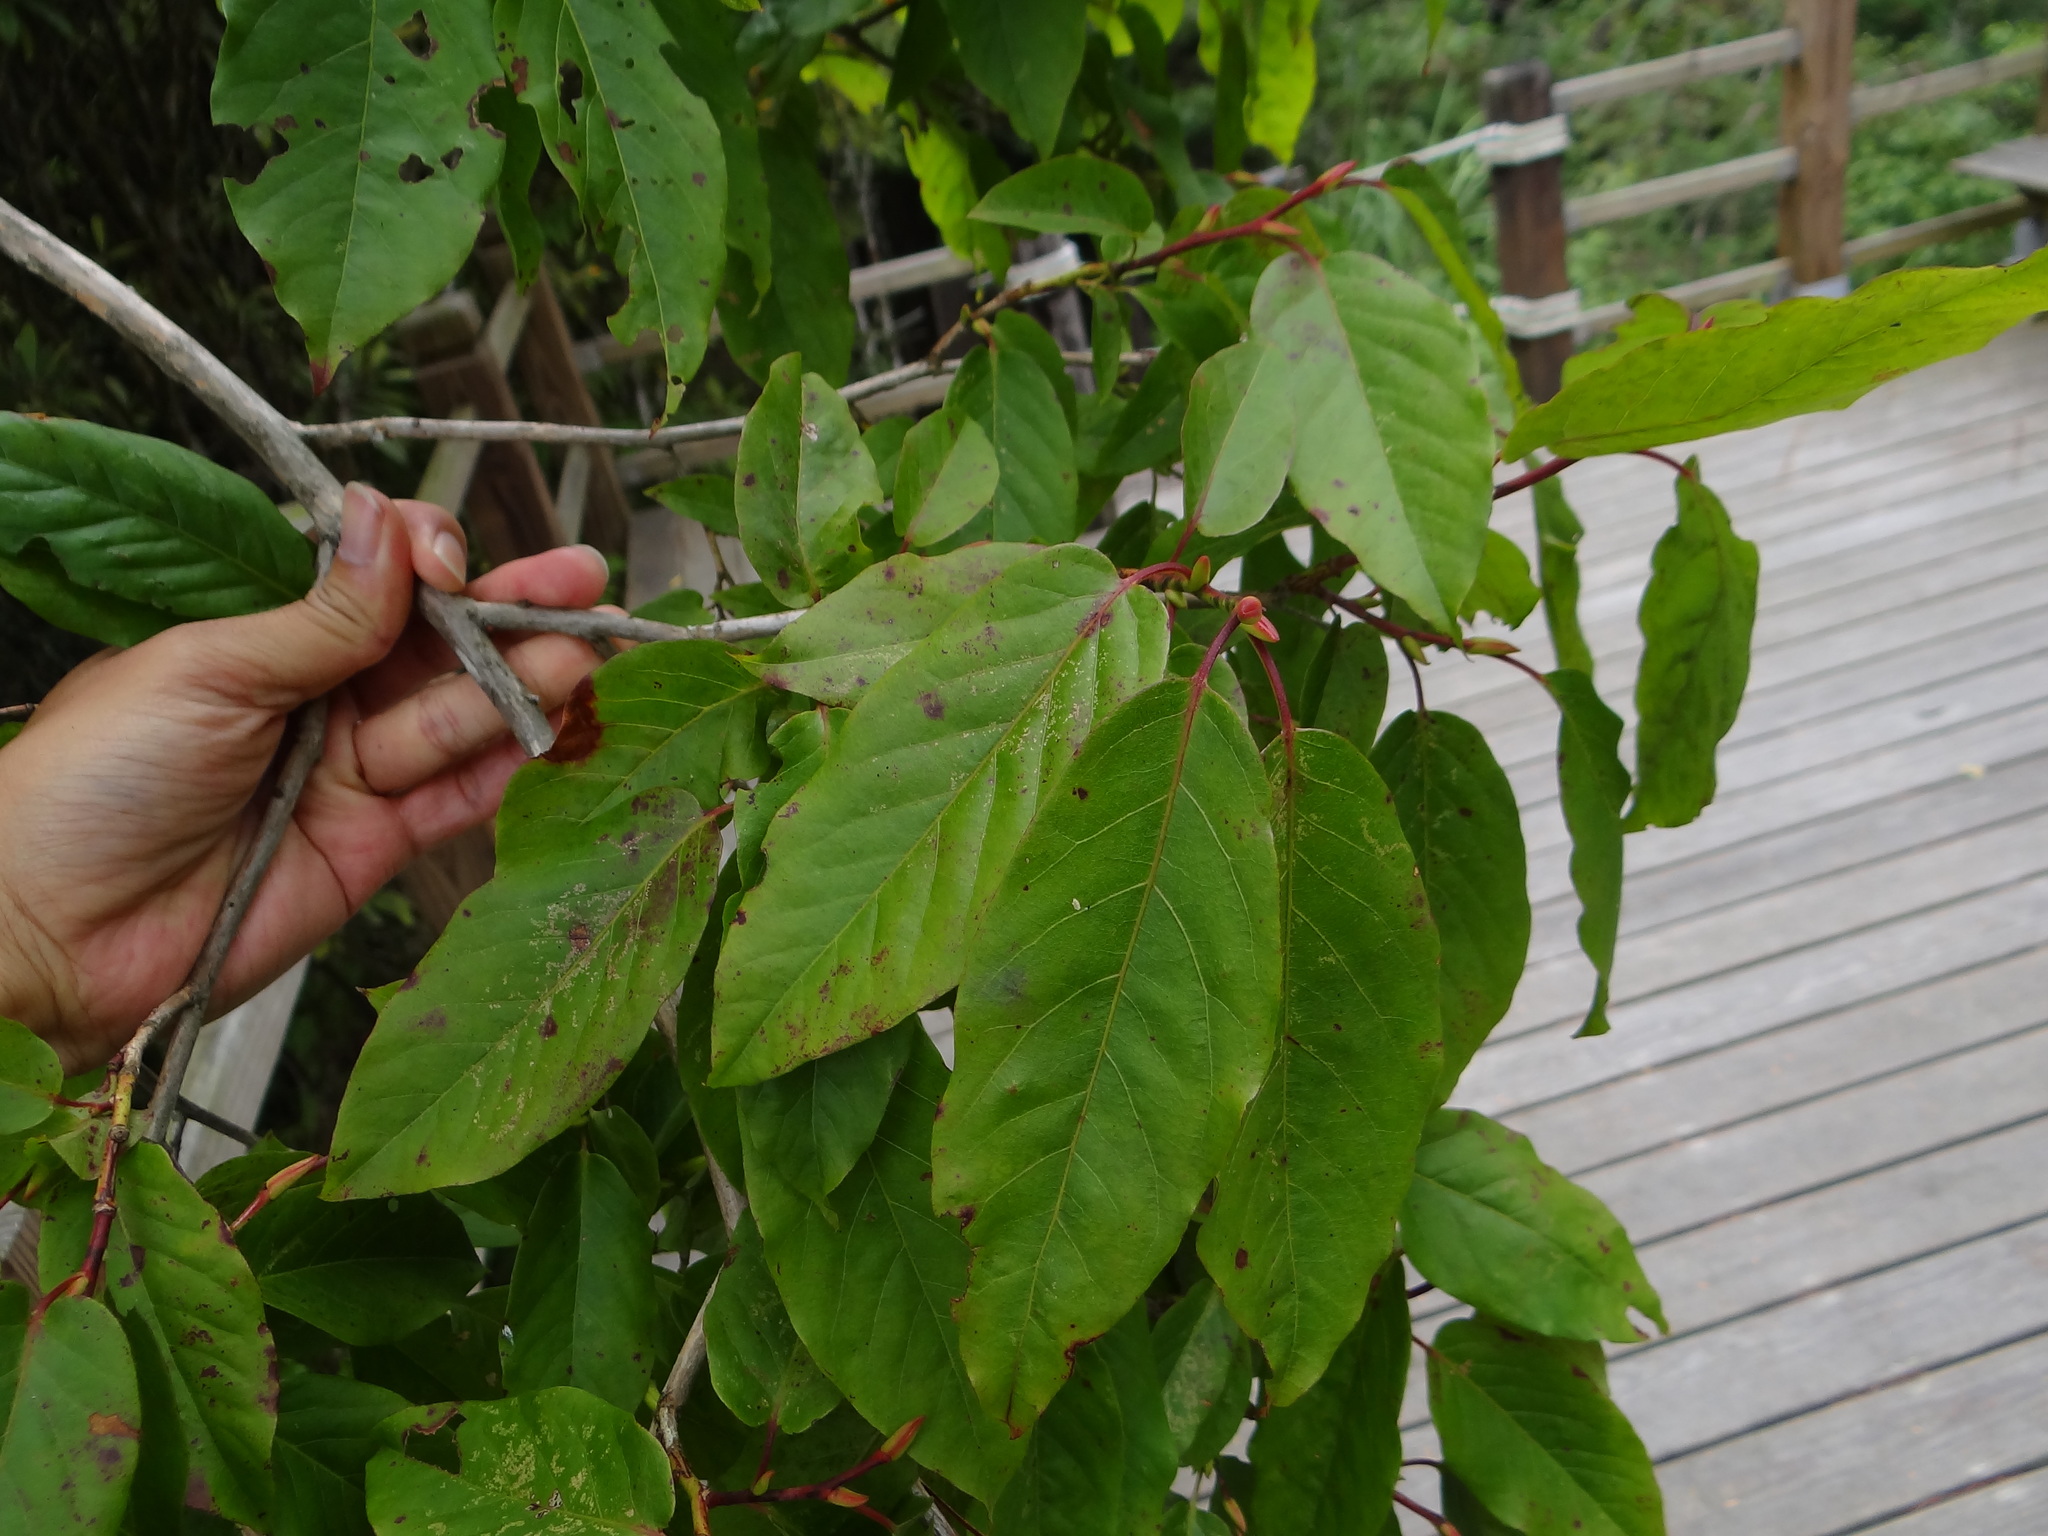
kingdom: Plantae
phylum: Tracheophyta
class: Magnoliopsida
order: Ericales
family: Ericaceae
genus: Lyonia
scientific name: Lyonia ovalifolia
